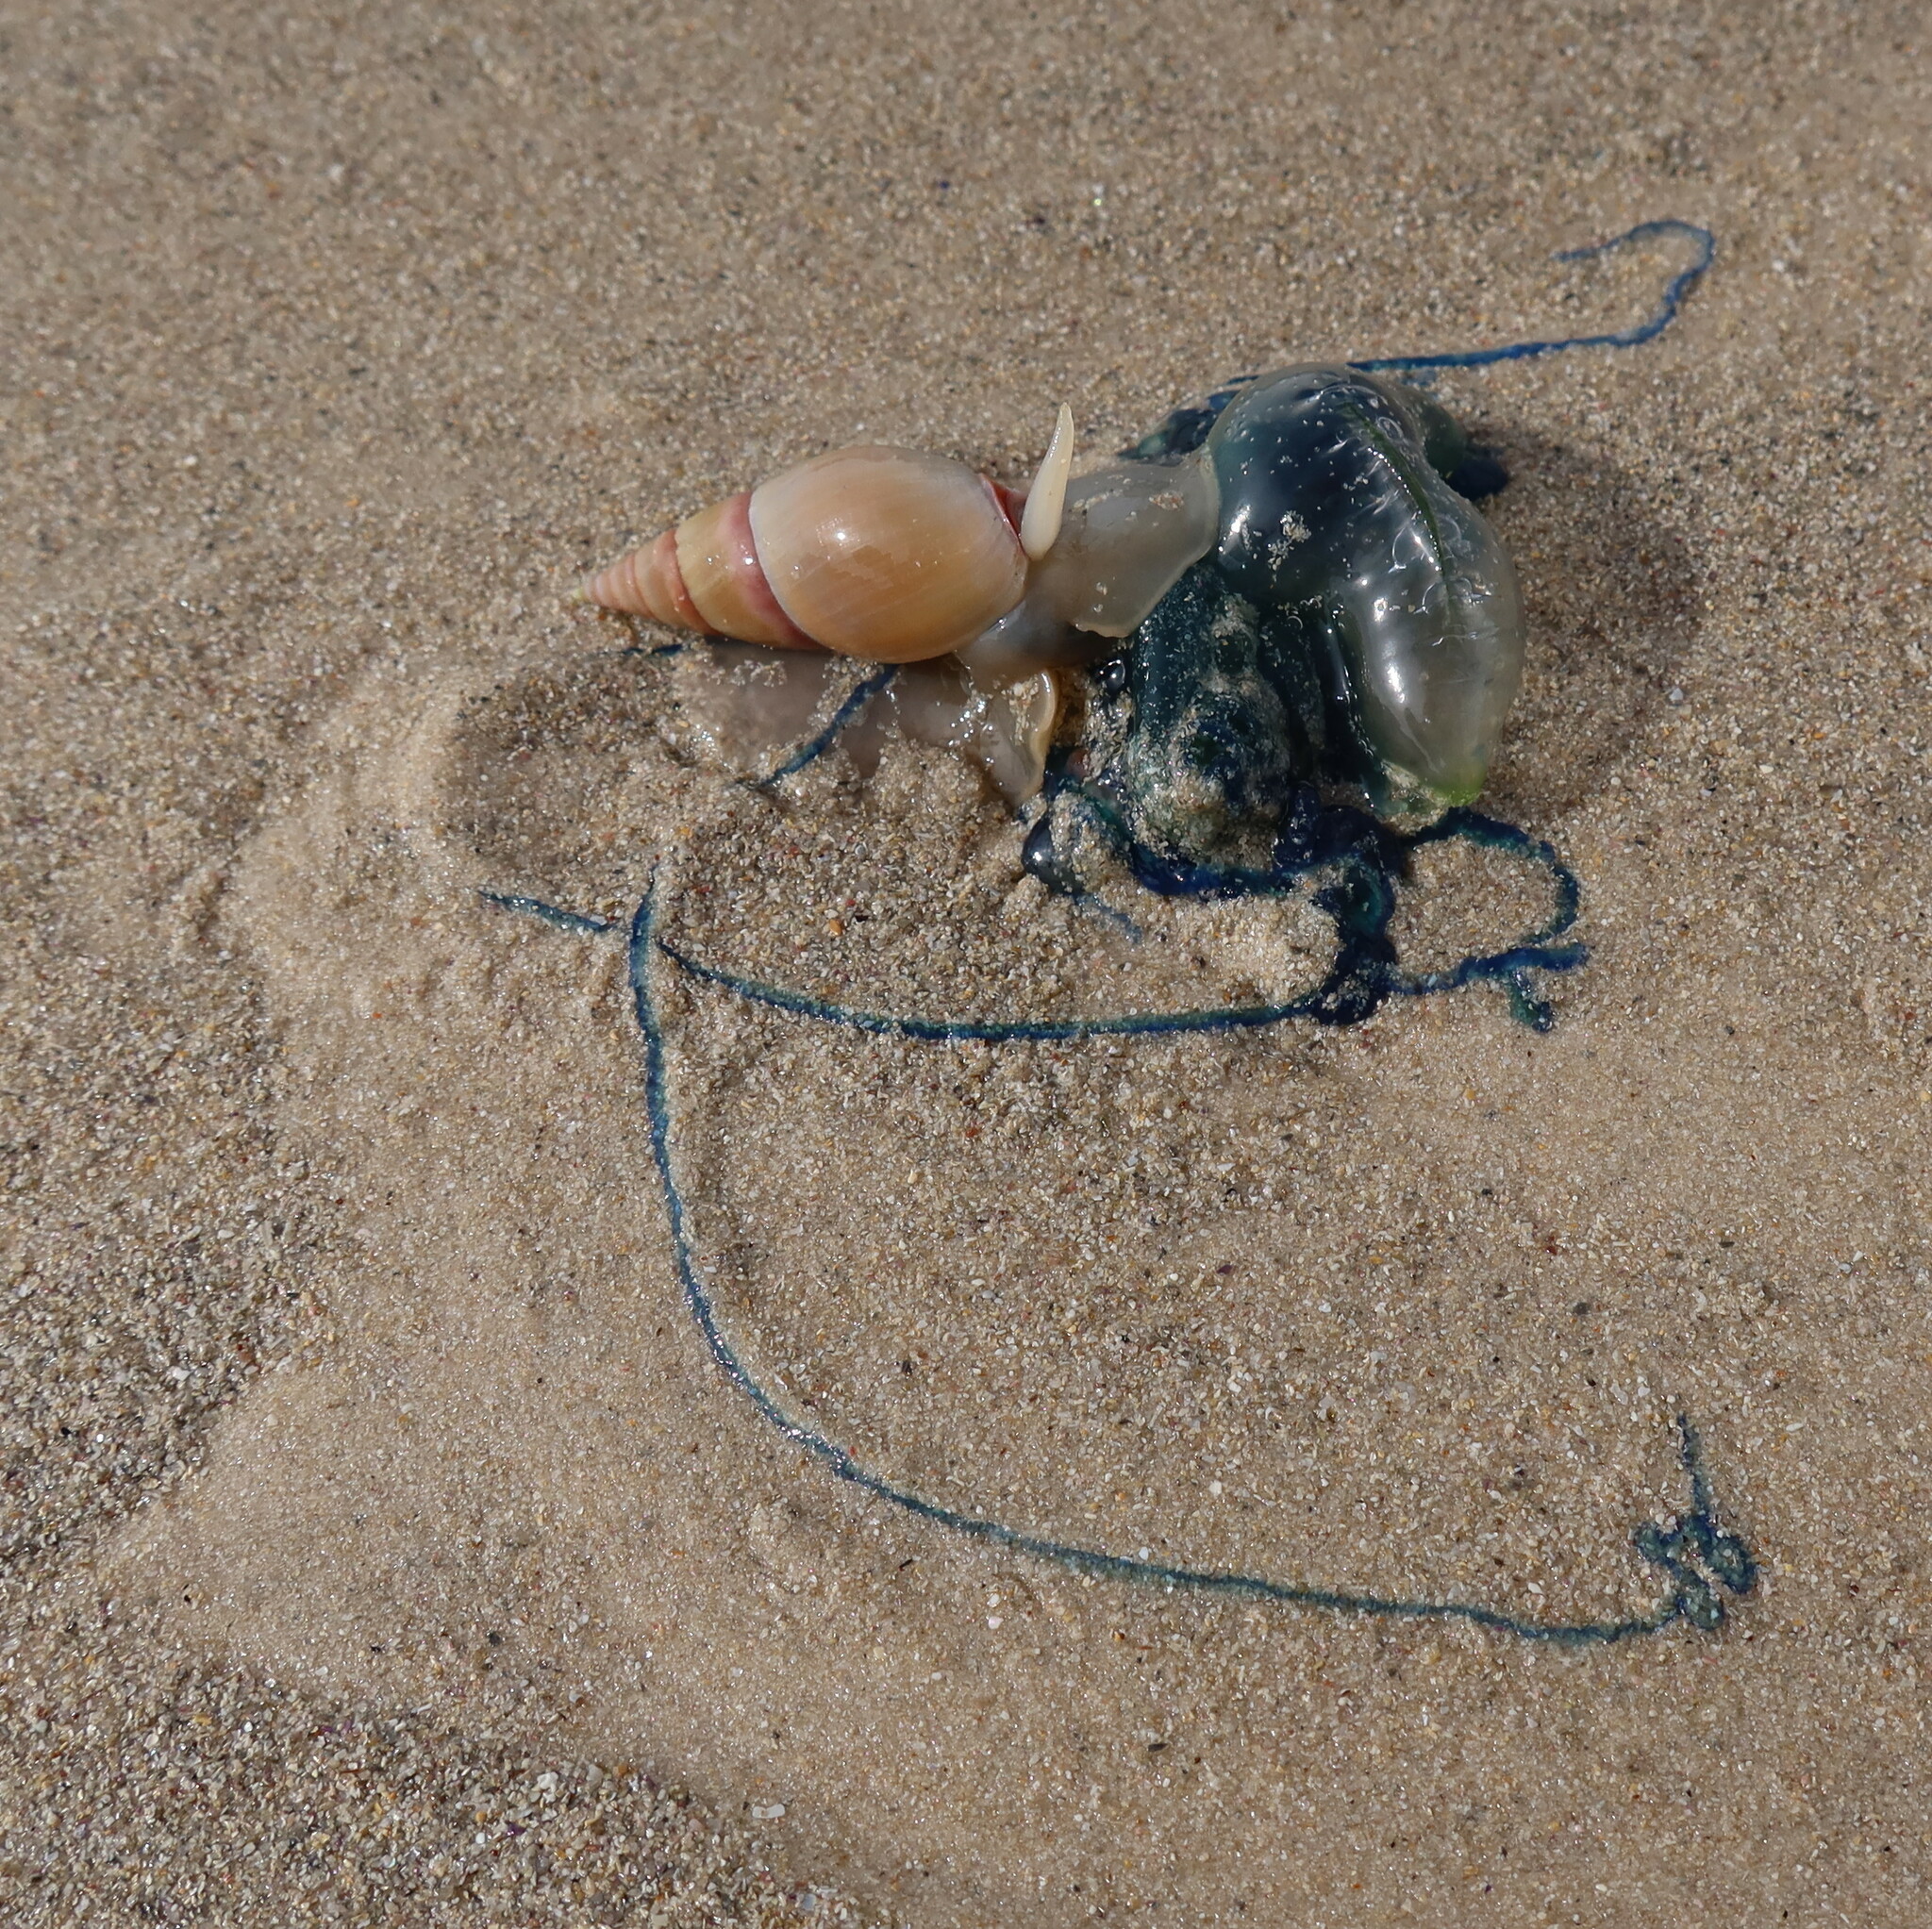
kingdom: Animalia
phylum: Cnidaria
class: Hydrozoa
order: Siphonophorae
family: Physaliidae
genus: Physalia
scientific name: Physalia physalis
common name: Portuguese man-of-war
